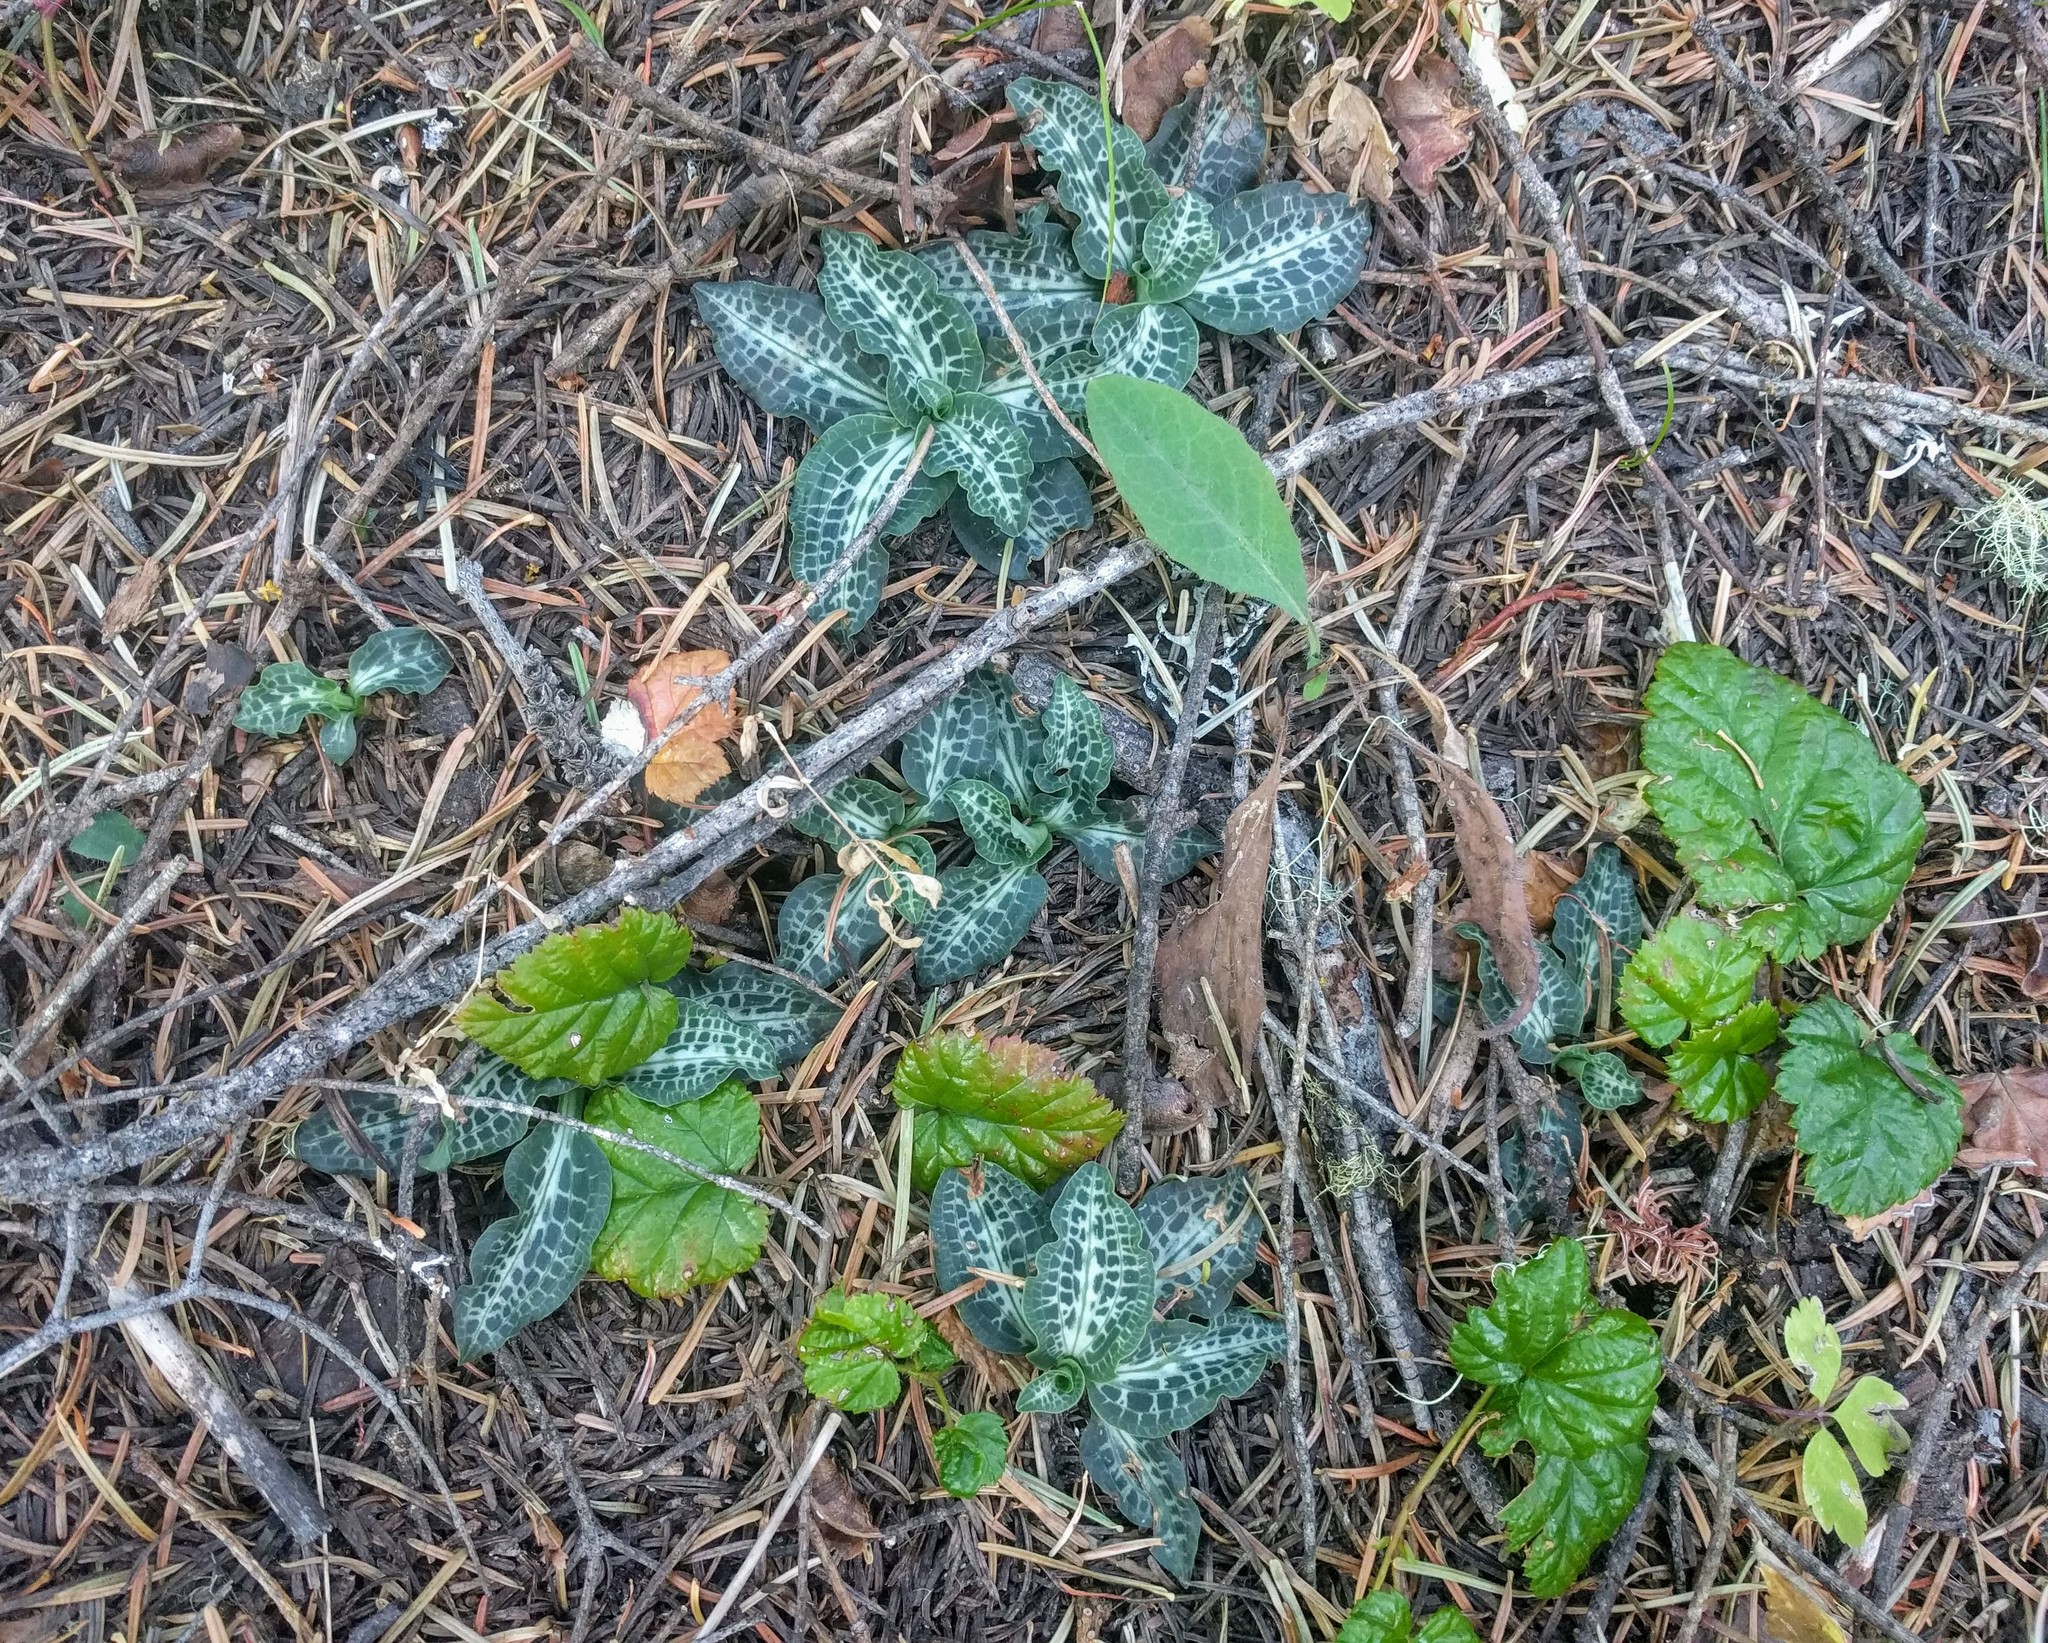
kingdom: Plantae
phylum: Tracheophyta
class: Liliopsida
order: Asparagales
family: Orchidaceae
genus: Goodyera
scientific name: Goodyera oblongifolia
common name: Giant rattlesnake-plantain
